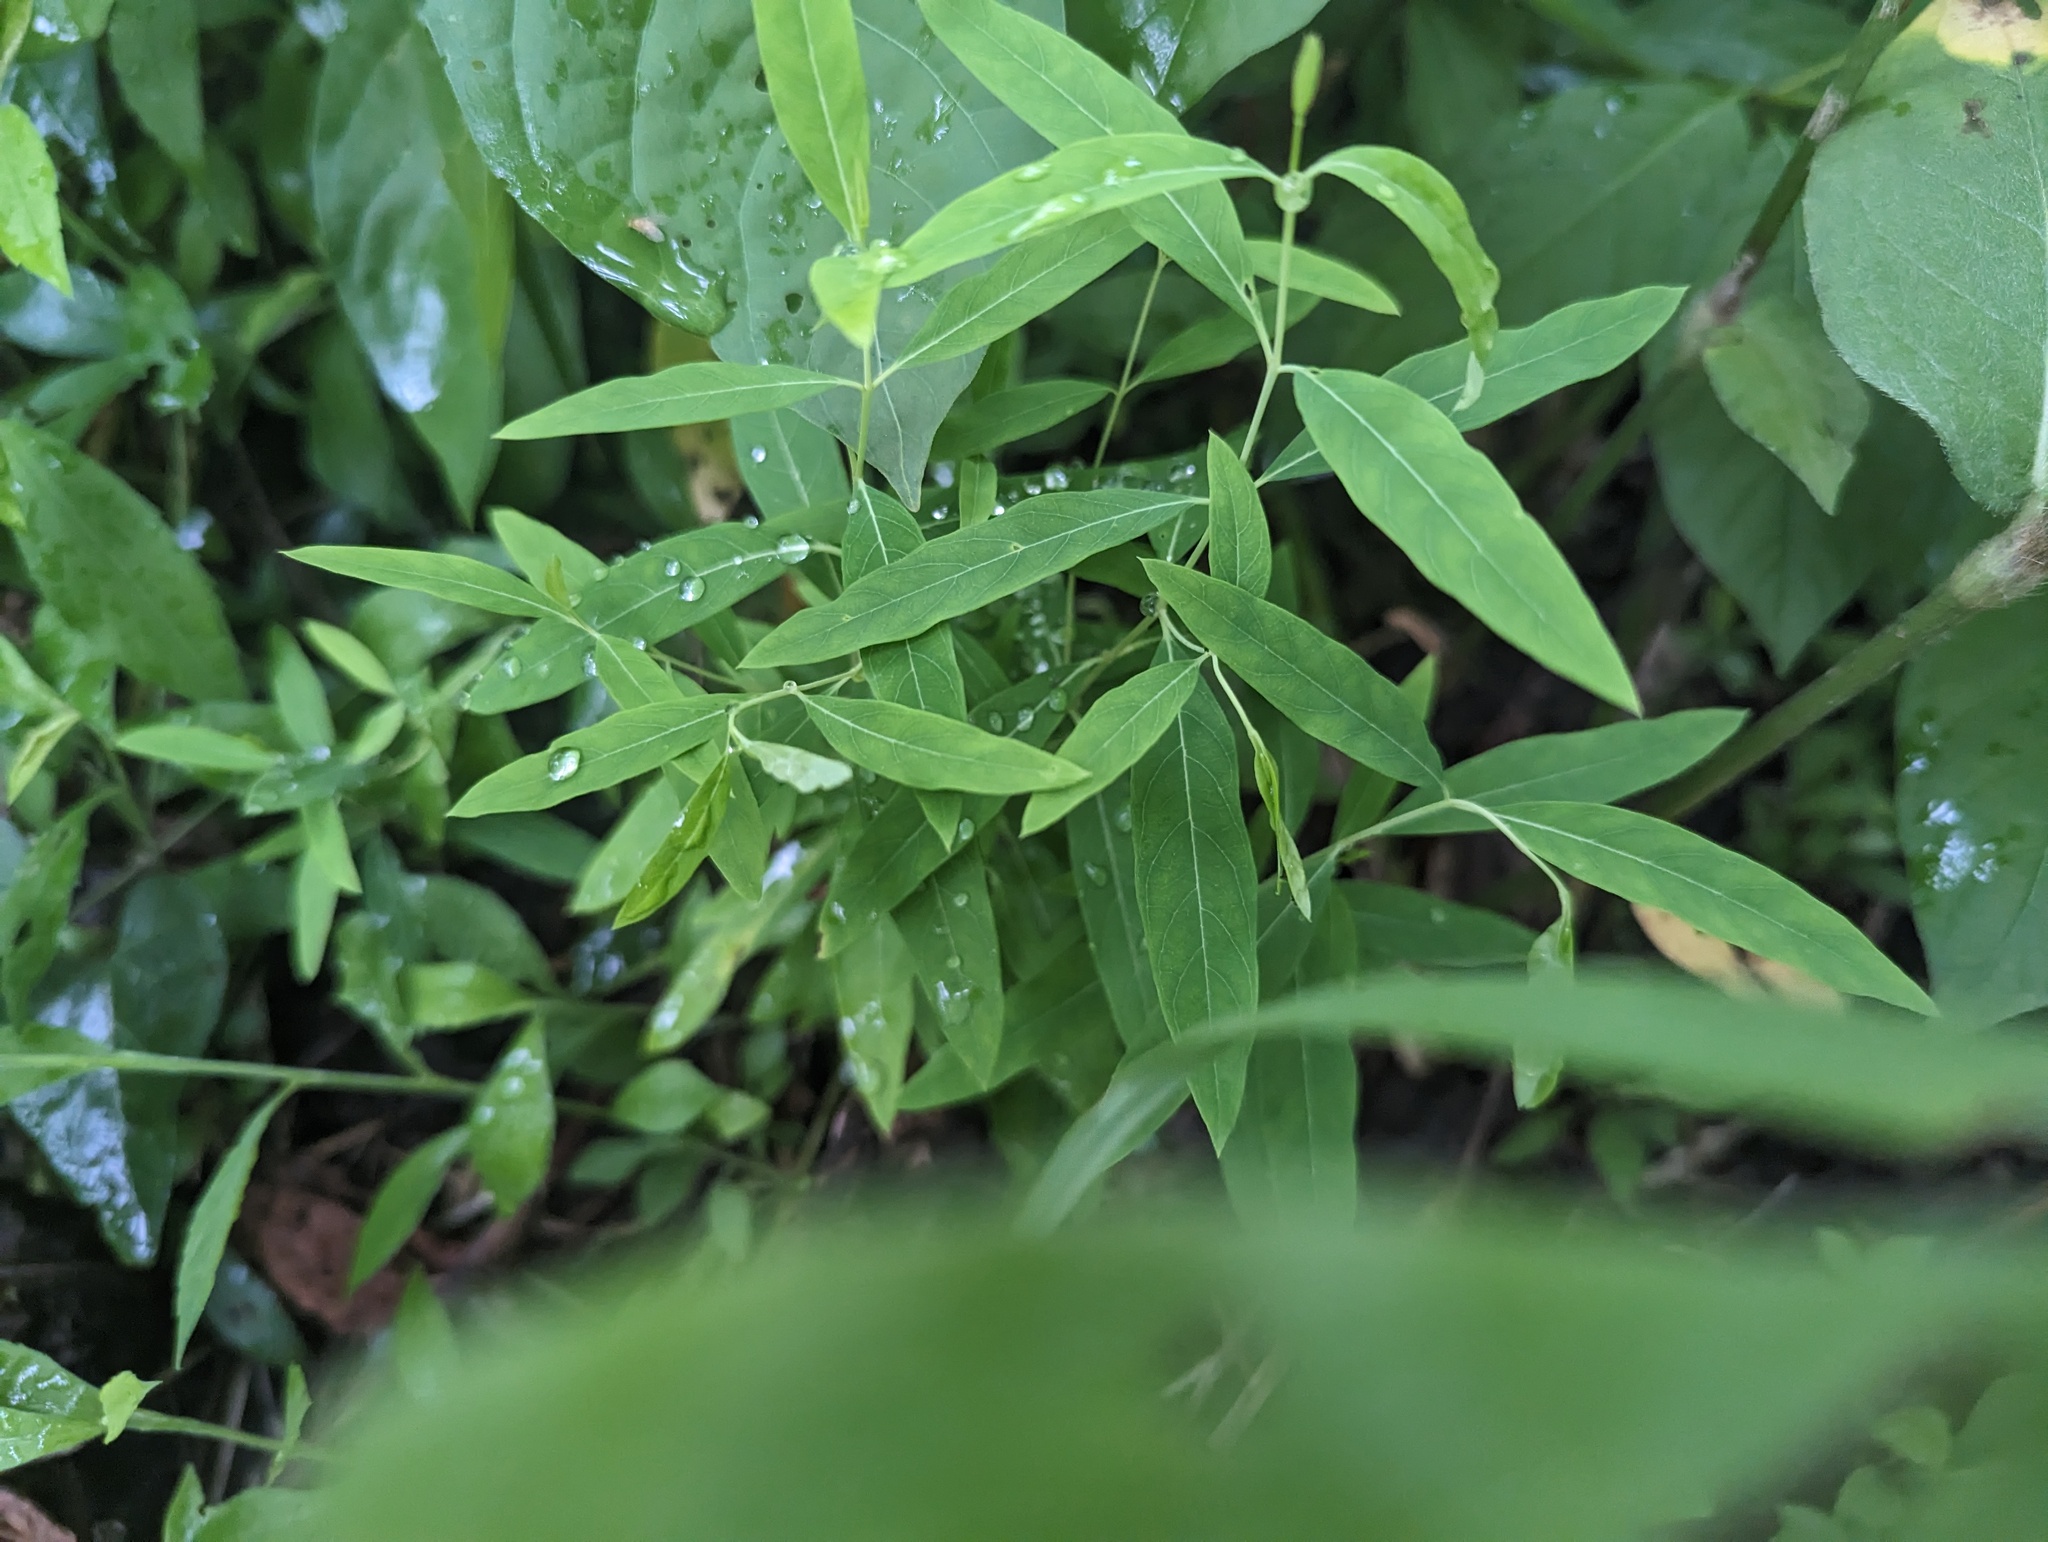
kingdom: Plantae
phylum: Tracheophyta
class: Magnoliopsida
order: Gentianales
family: Apocynaceae
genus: Apocynum
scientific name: Apocynum cannabinum
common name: Hemp dogbane
